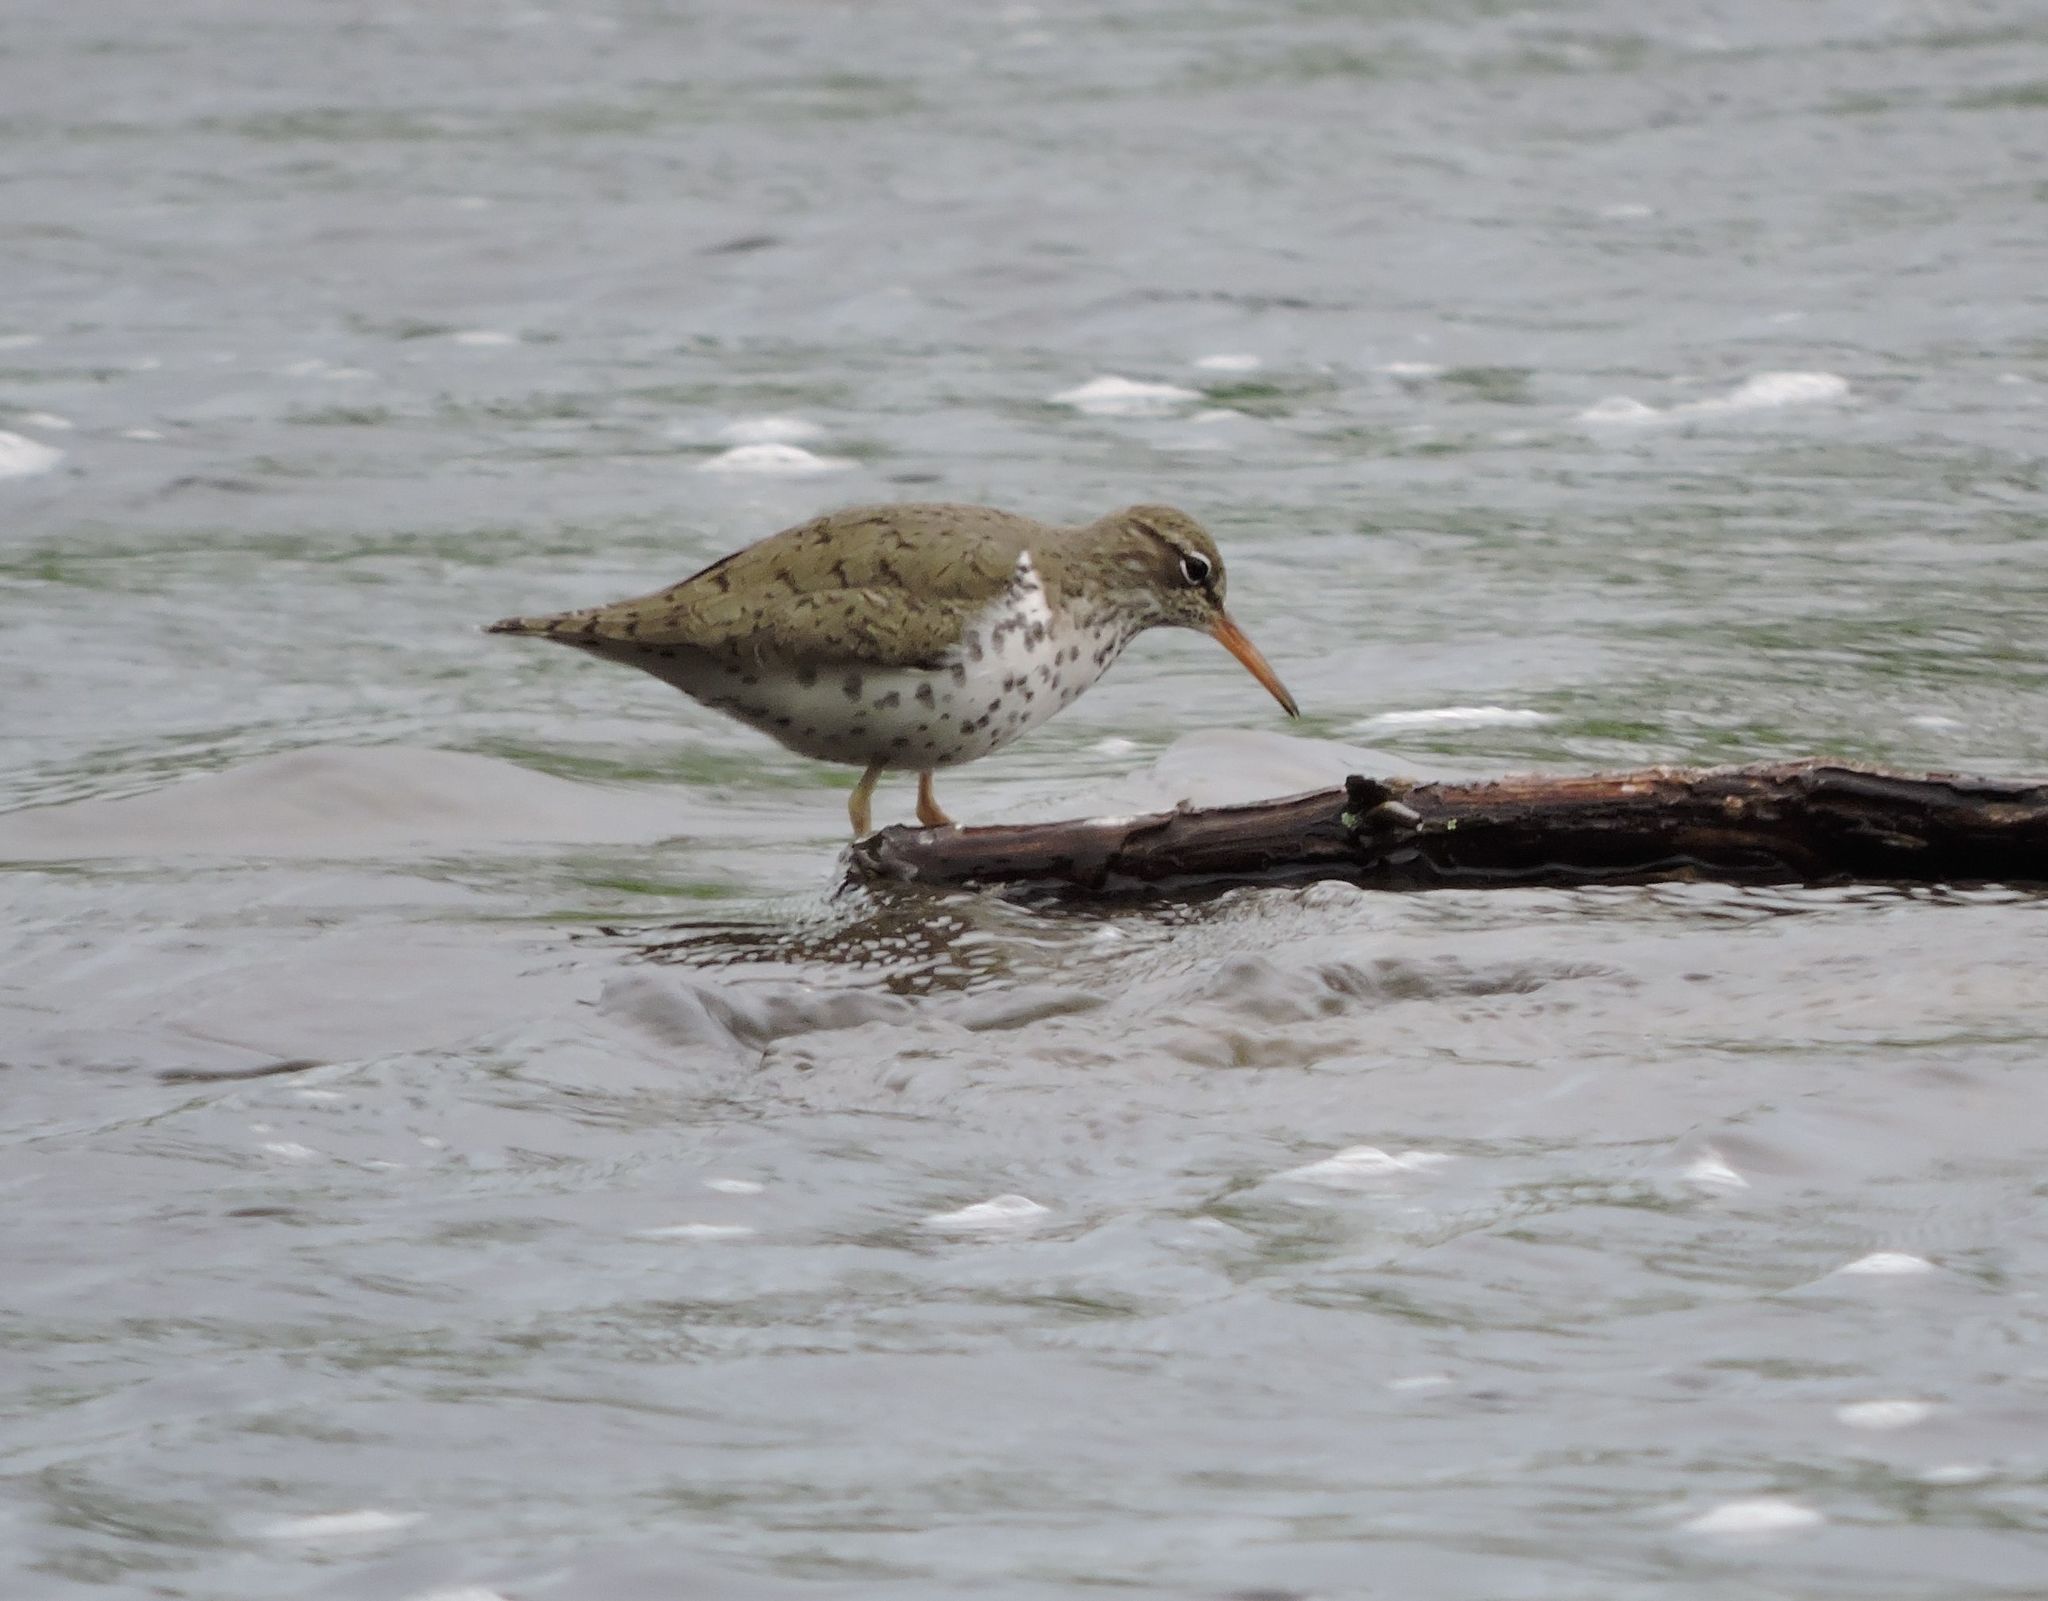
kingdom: Animalia
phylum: Chordata
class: Aves
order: Charadriiformes
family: Scolopacidae
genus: Actitis
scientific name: Actitis macularius
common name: Spotted sandpiper
